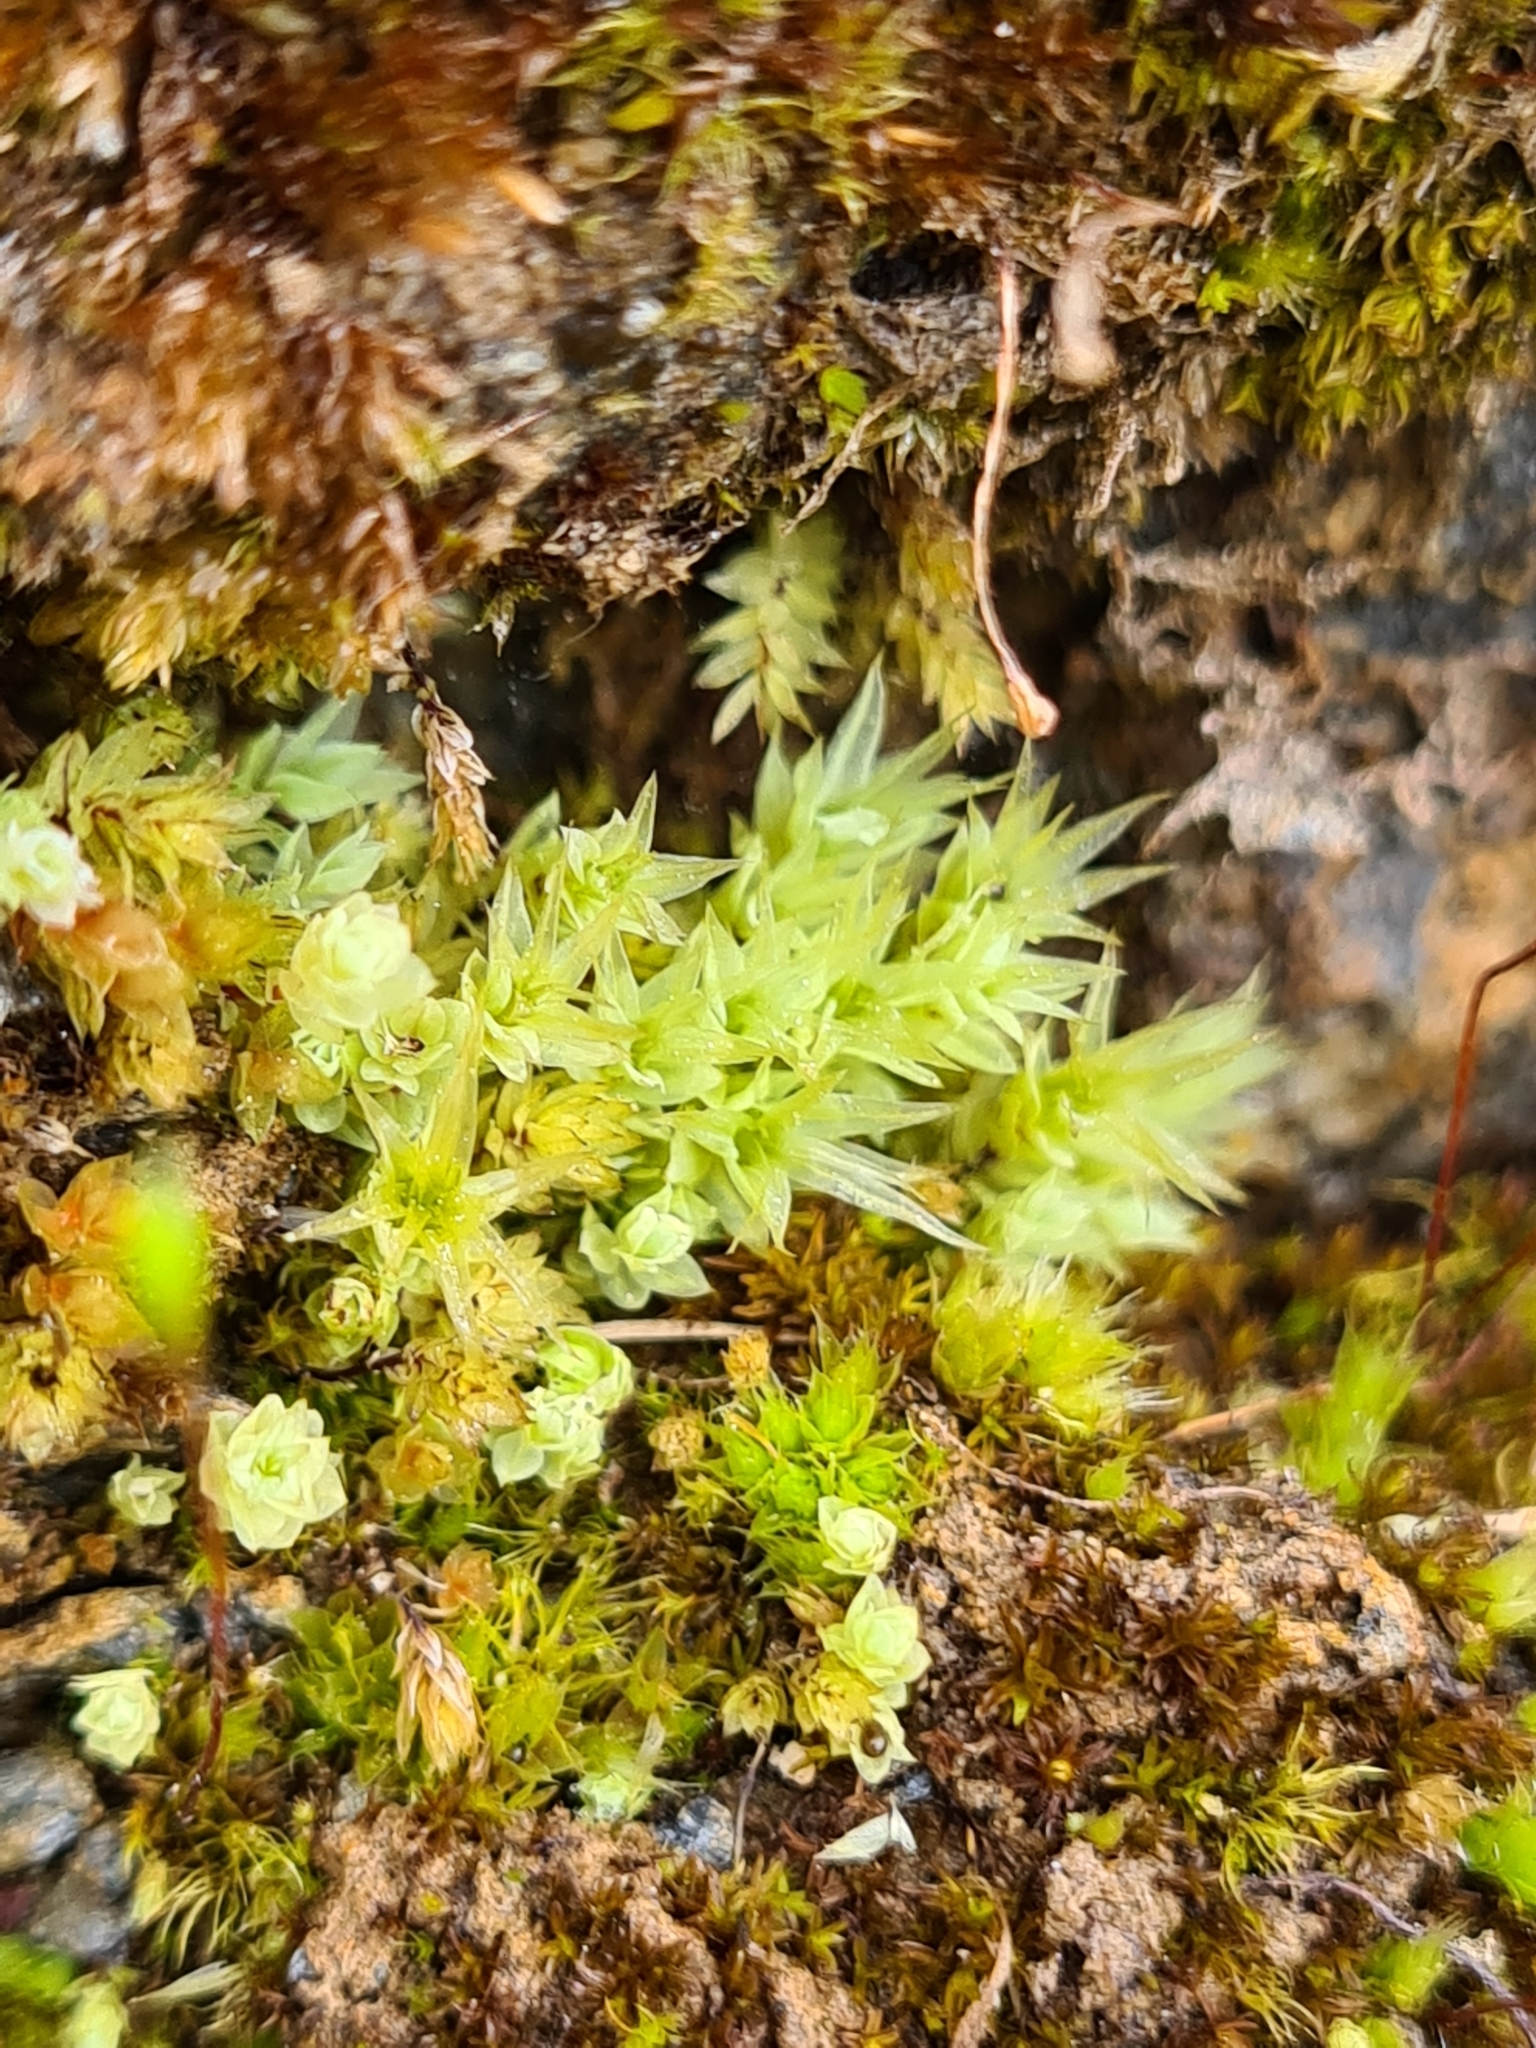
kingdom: Plantae
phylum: Bryophyta
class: Bryopsida
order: Bryales
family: Mniaceae
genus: Pohlia
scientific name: Pohlia cruda
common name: Opal nodding moss
